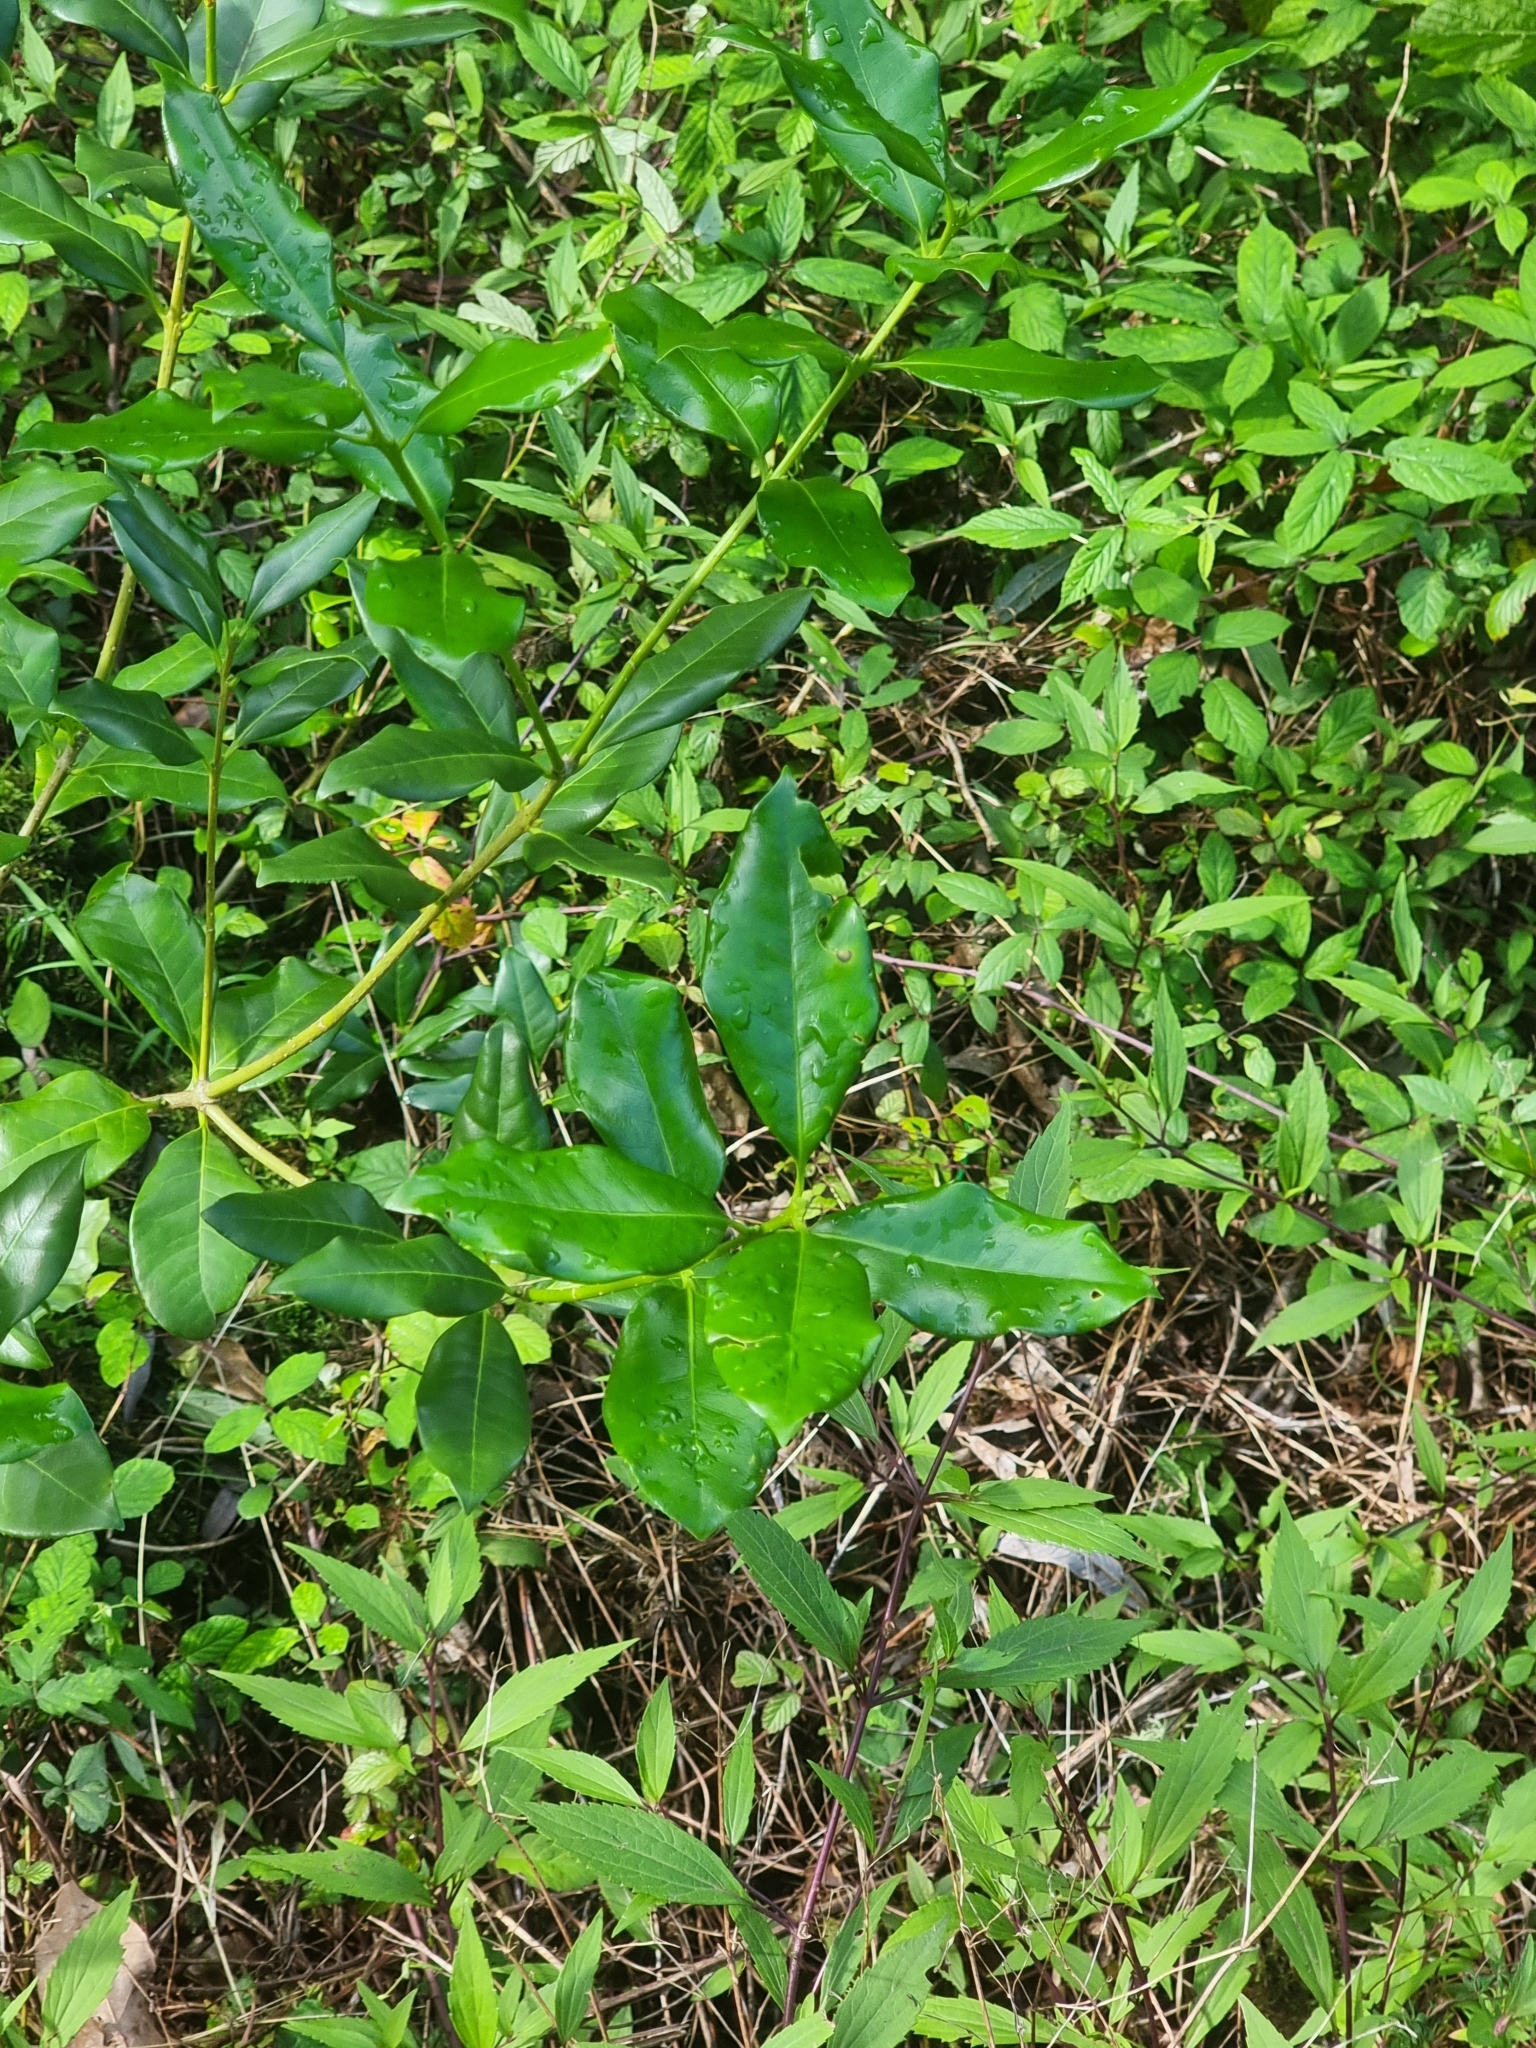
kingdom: Plantae
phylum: Tracheophyta
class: Magnoliopsida
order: Lamiales
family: Oleaceae
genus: Picconia
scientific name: Picconia excelsa
